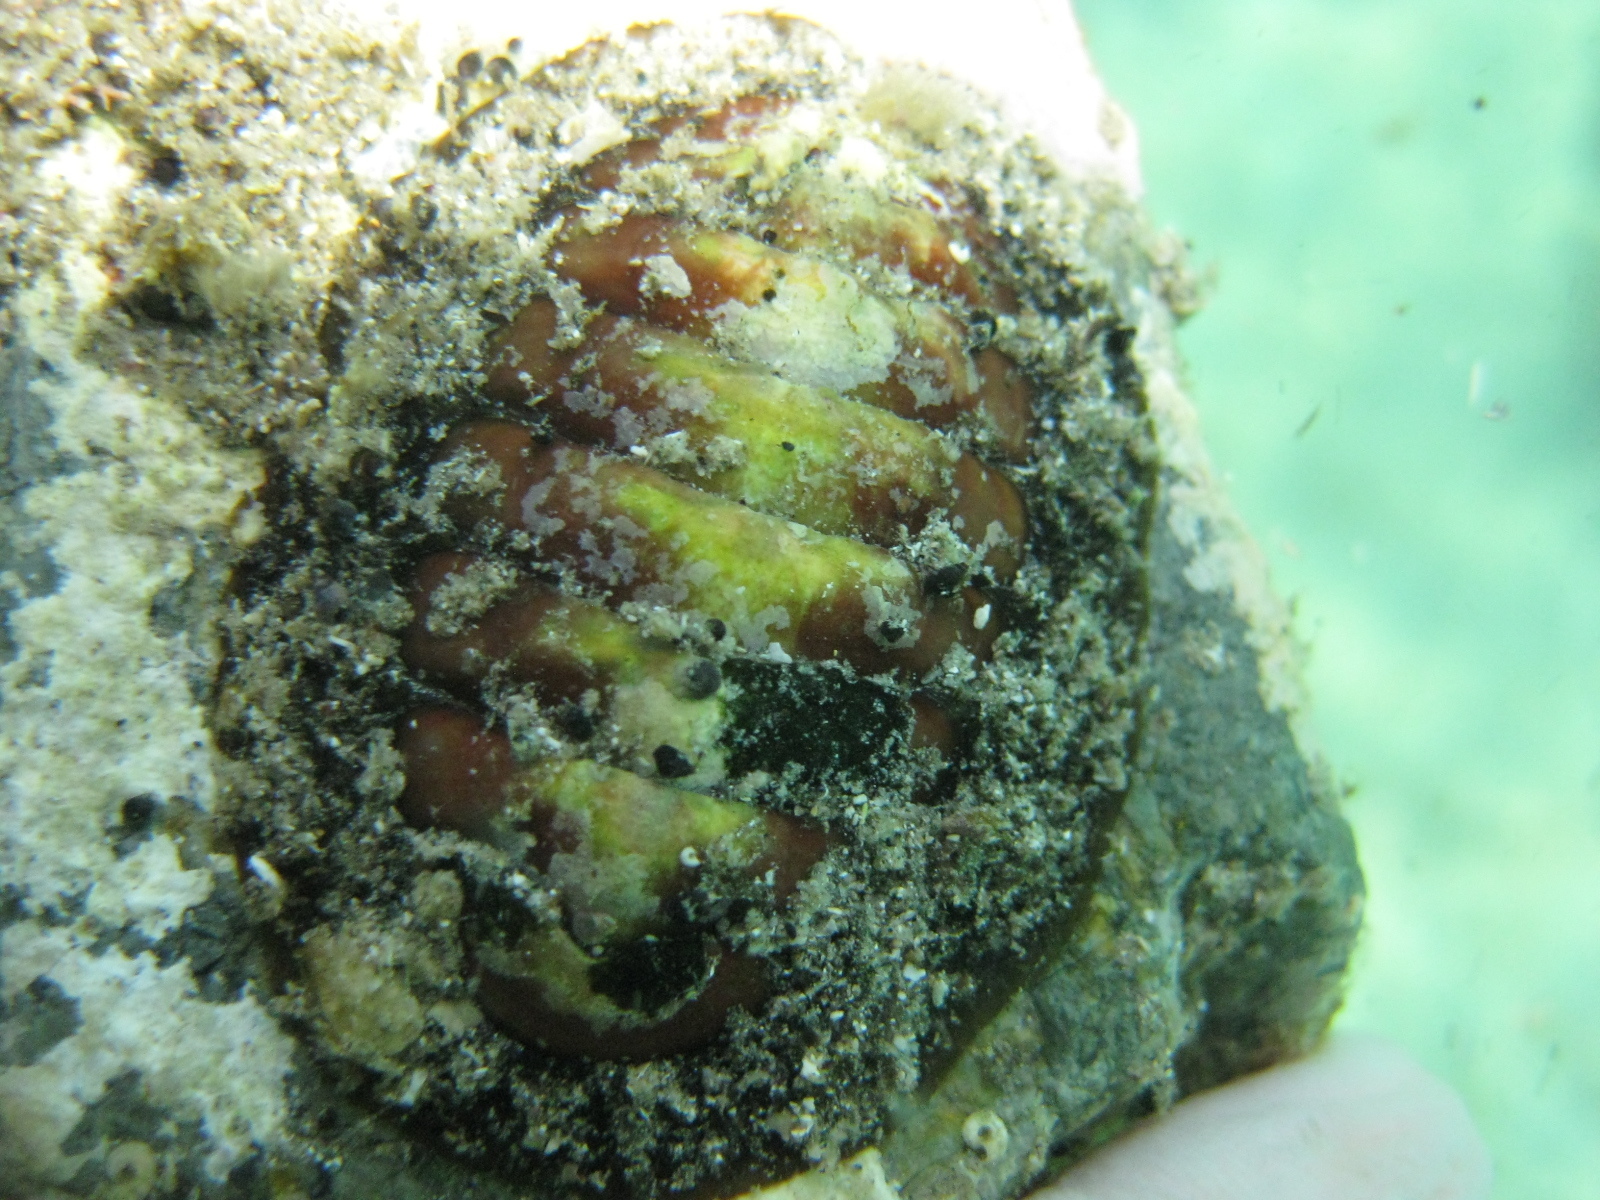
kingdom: Animalia
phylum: Mollusca
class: Polyplacophora
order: Callochitonida
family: Callochitonidae
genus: Eudoxochiton
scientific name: Eudoxochiton nobilis
